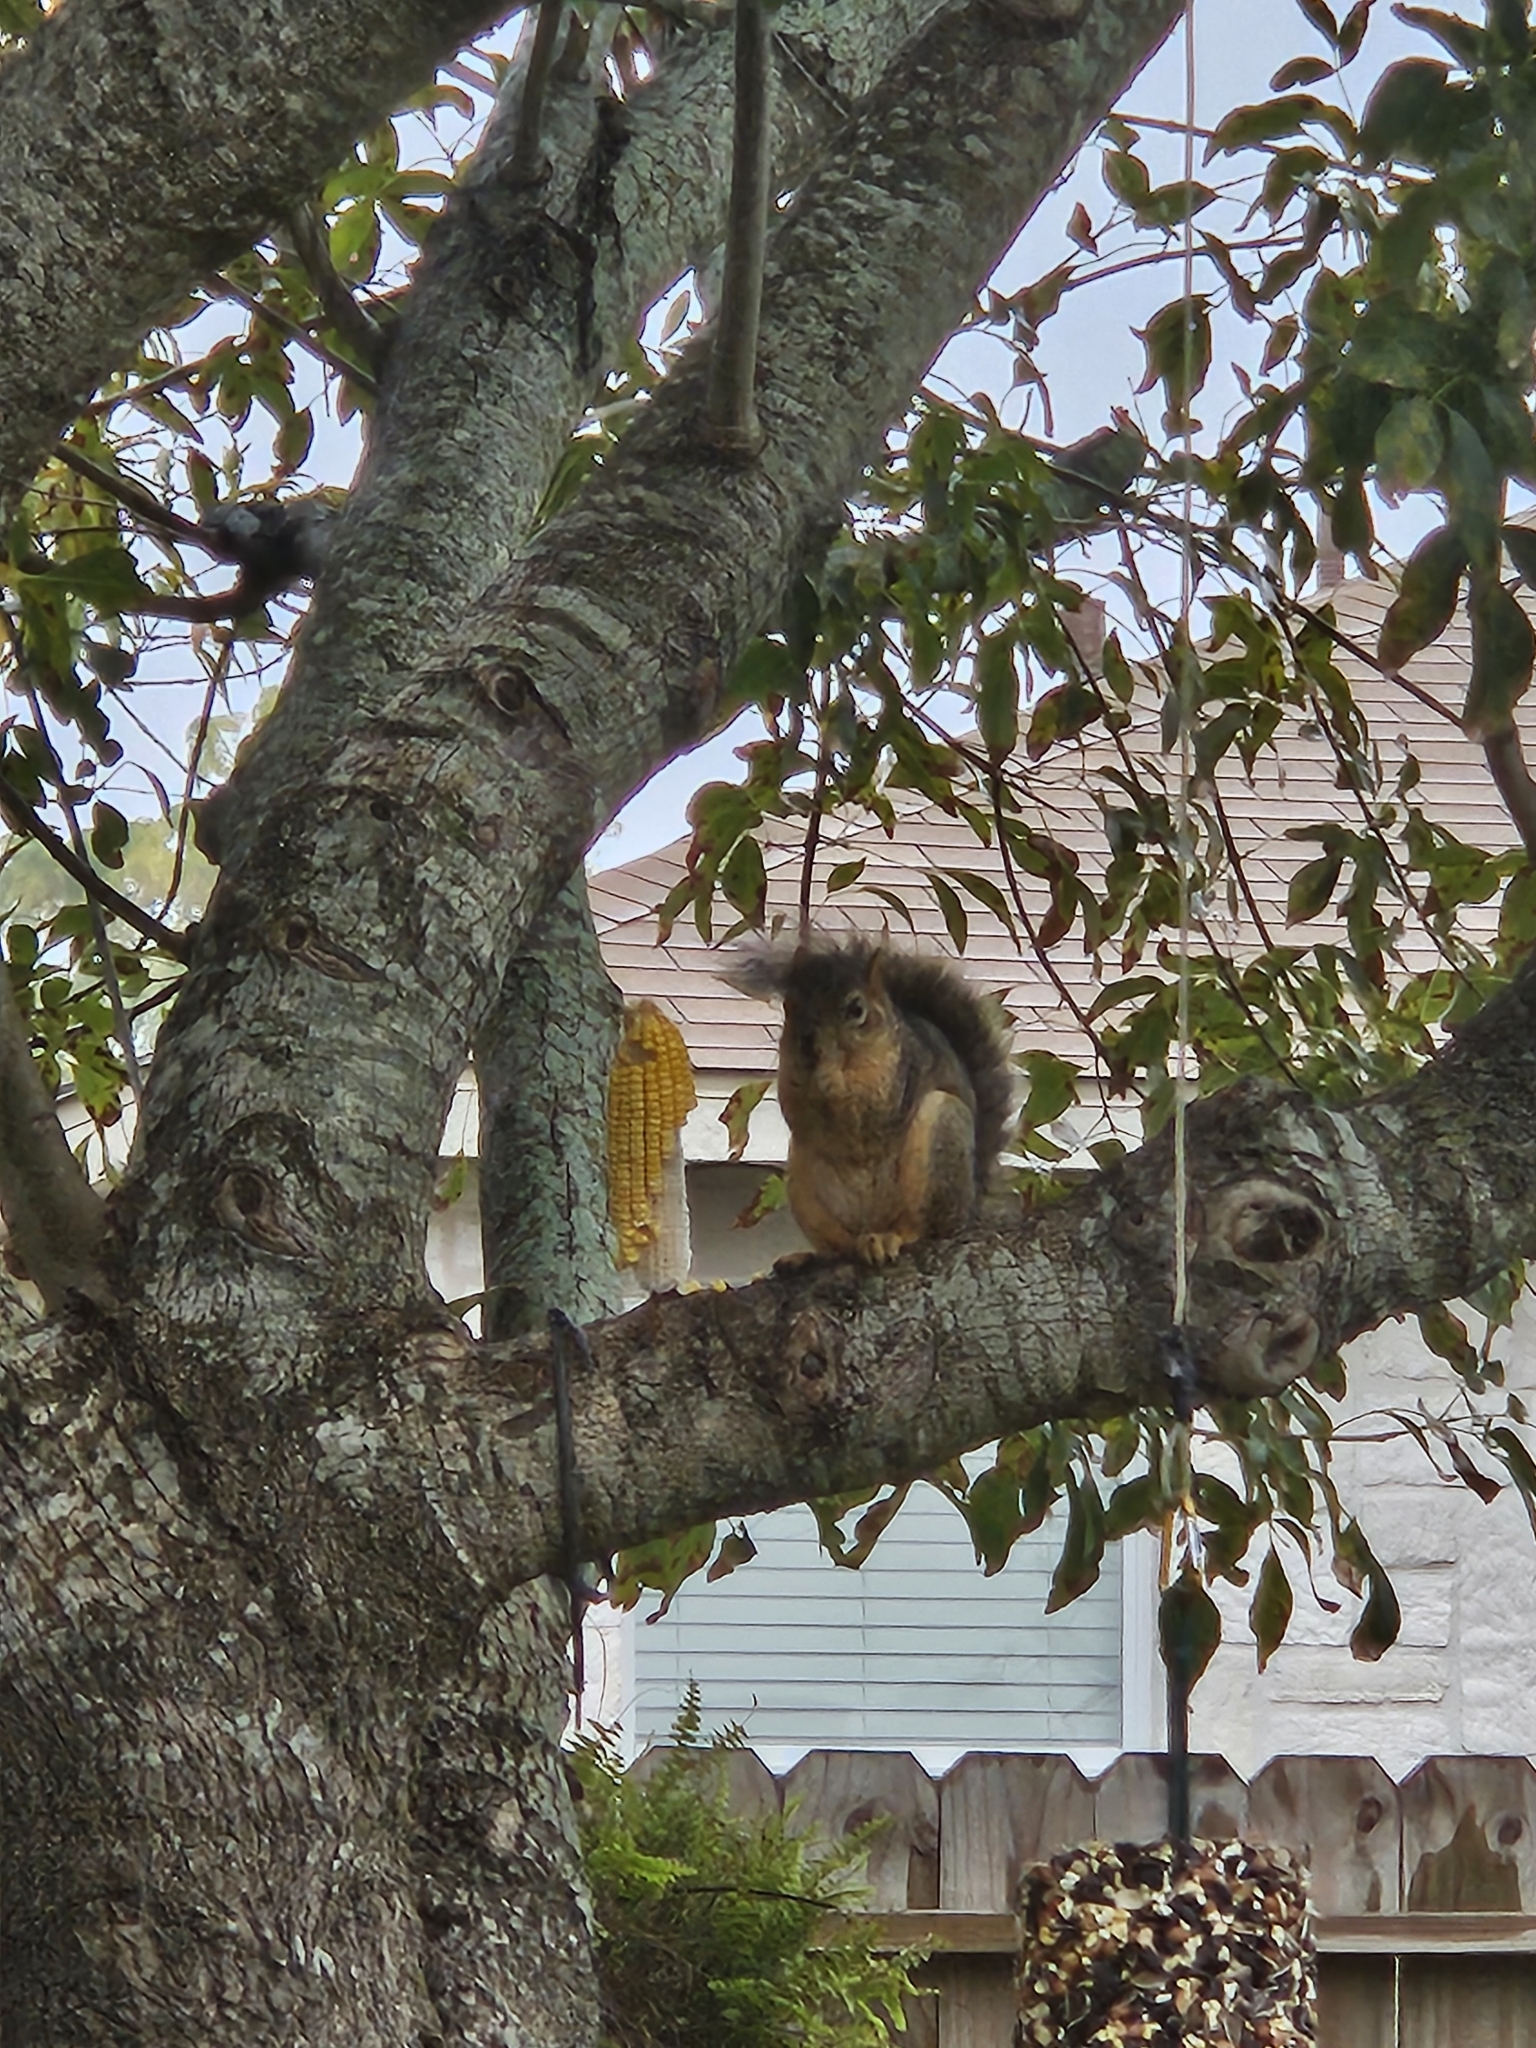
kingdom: Animalia
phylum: Chordata
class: Mammalia
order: Rodentia
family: Sciuridae
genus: Sciurus
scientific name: Sciurus niger
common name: Fox squirrel
